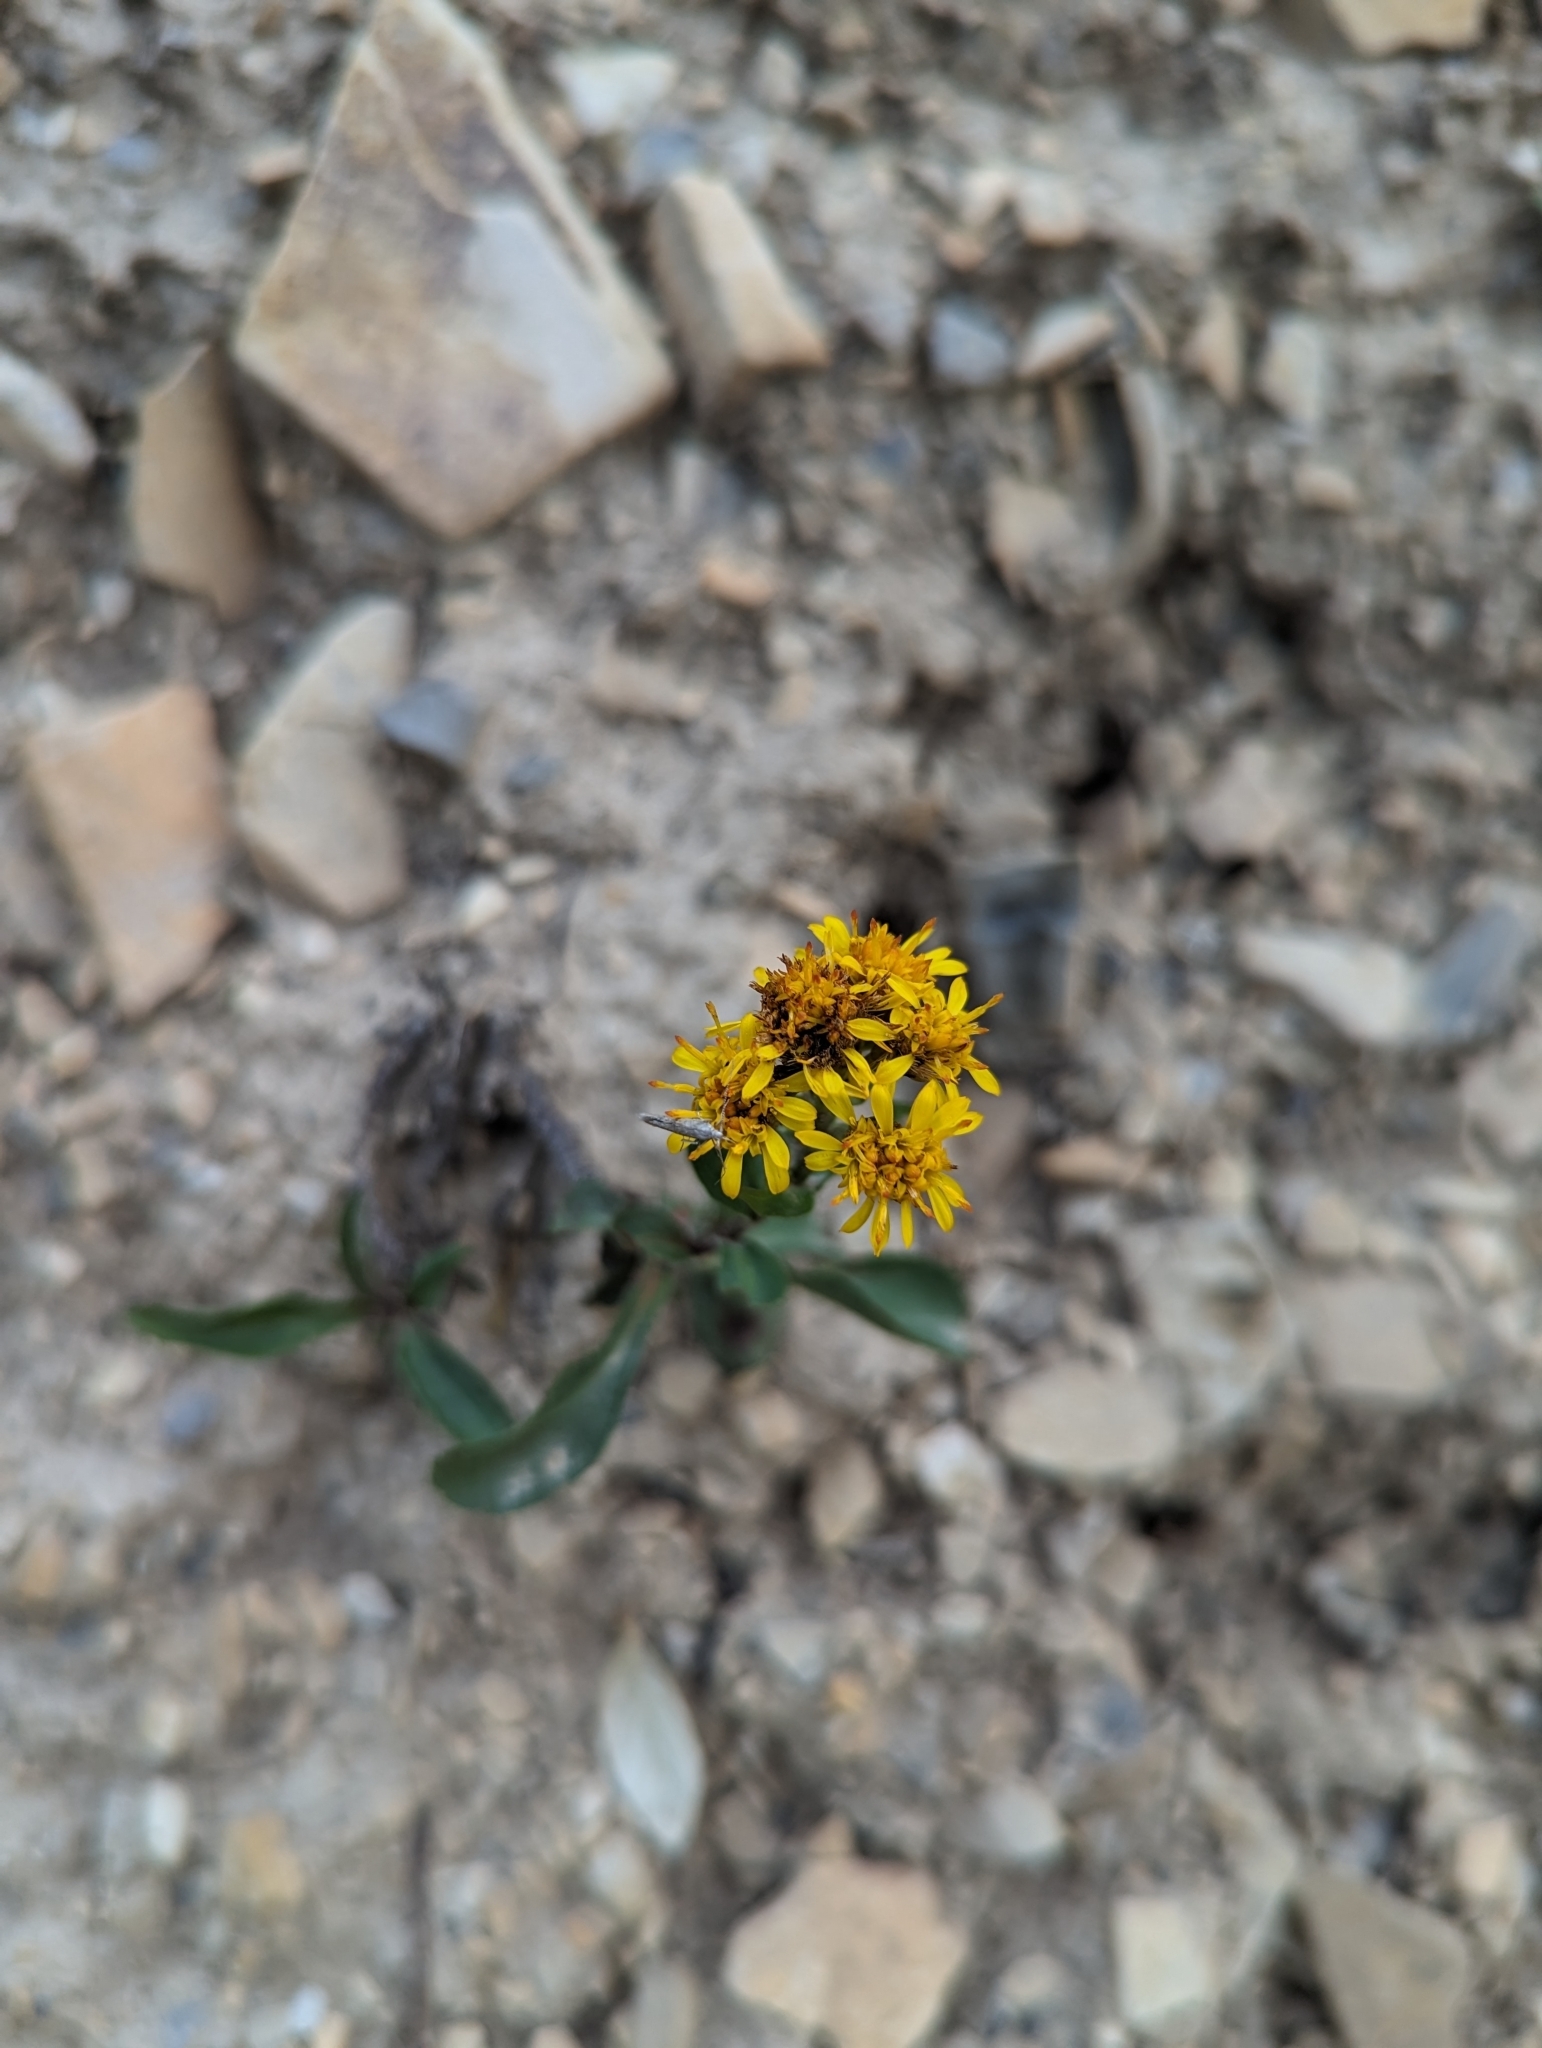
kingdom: Plantae
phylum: Tracheophyta
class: Magnoliopsida
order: Asterales
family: Asteraceae
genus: Solidago
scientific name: Solidago multiradiata
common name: Northern goldenrod
